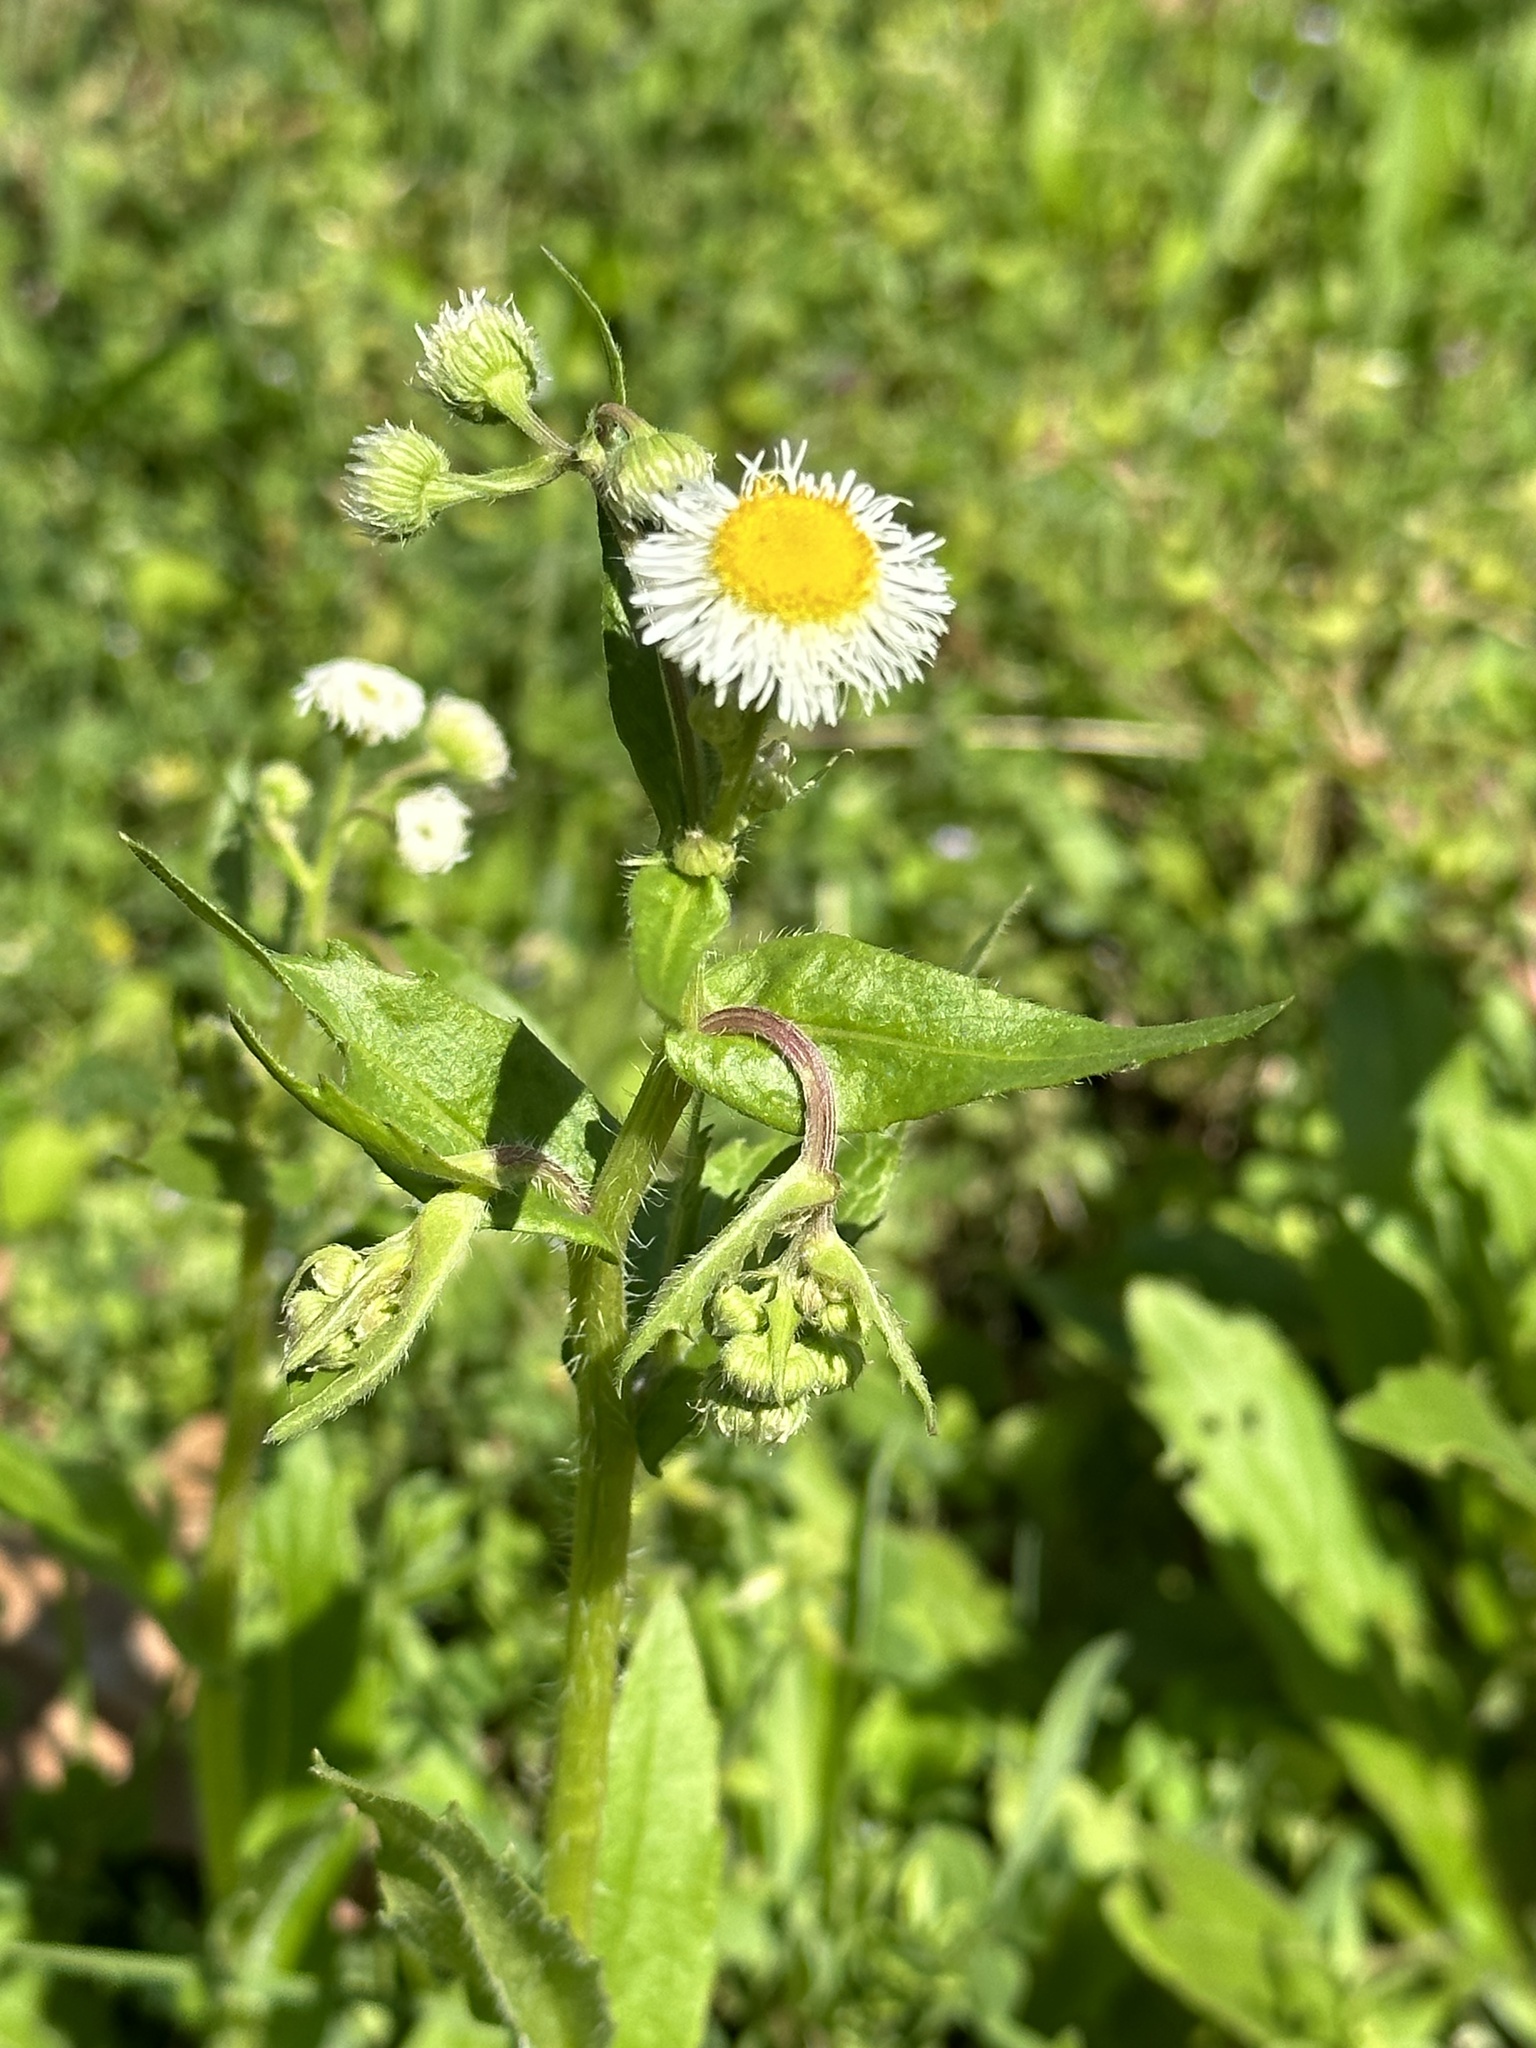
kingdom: Plantae
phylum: Tracheophyta
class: Magnoliopsida
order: Asterales
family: Asteraceae
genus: Erigeron
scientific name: Erigeron philadelphicus
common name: Robin's-plantain
